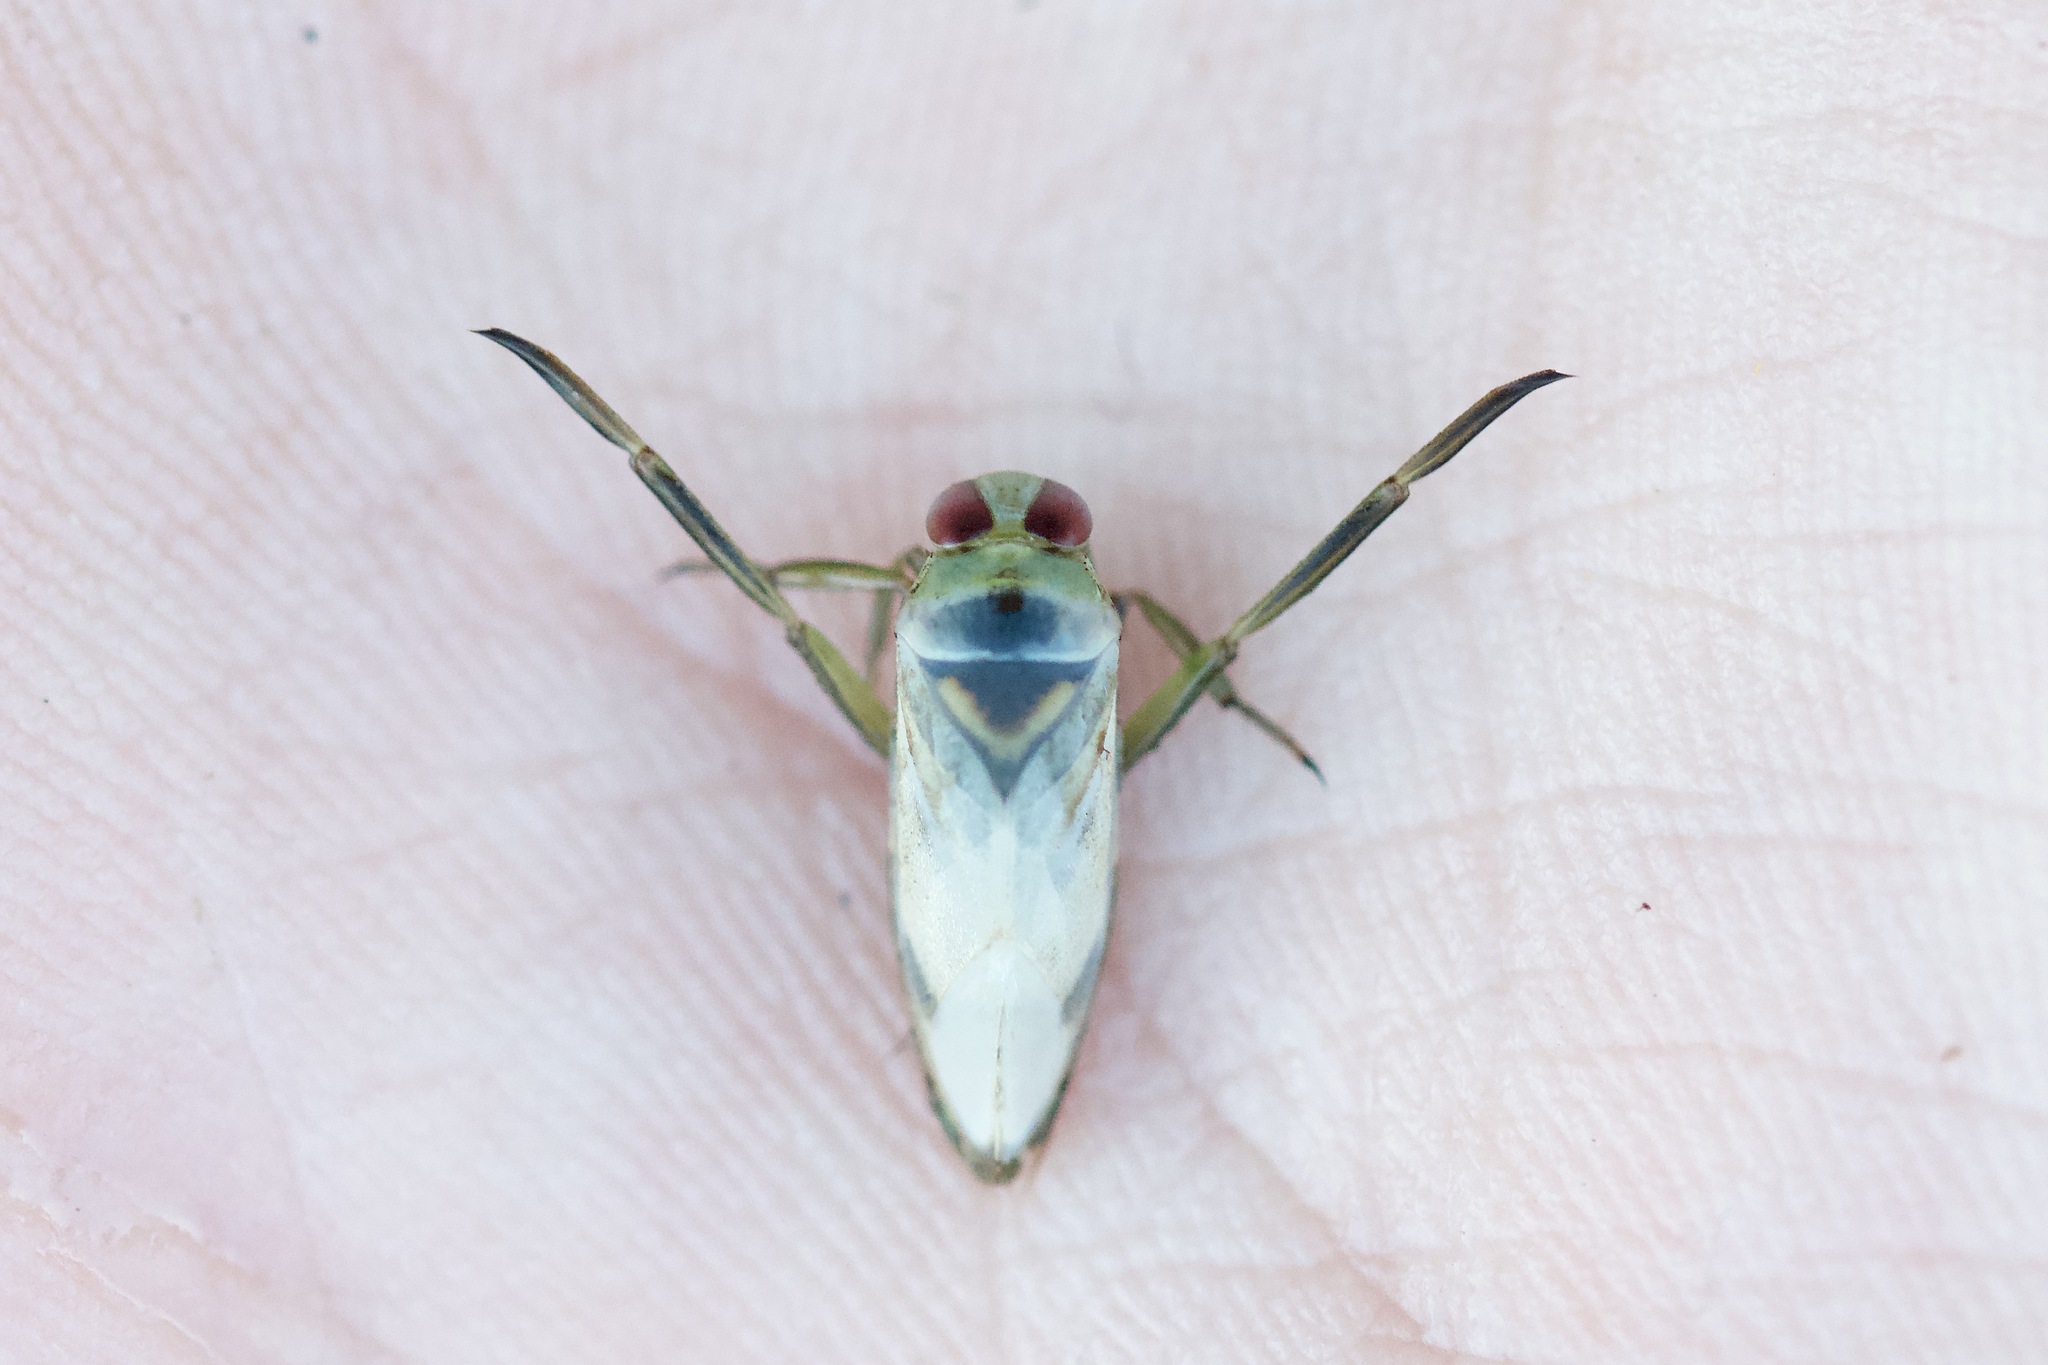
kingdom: Animalia
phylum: Arthropoda
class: Insecta
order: Hemiptera
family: Notonectidae
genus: Notonecta
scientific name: Notonecta
